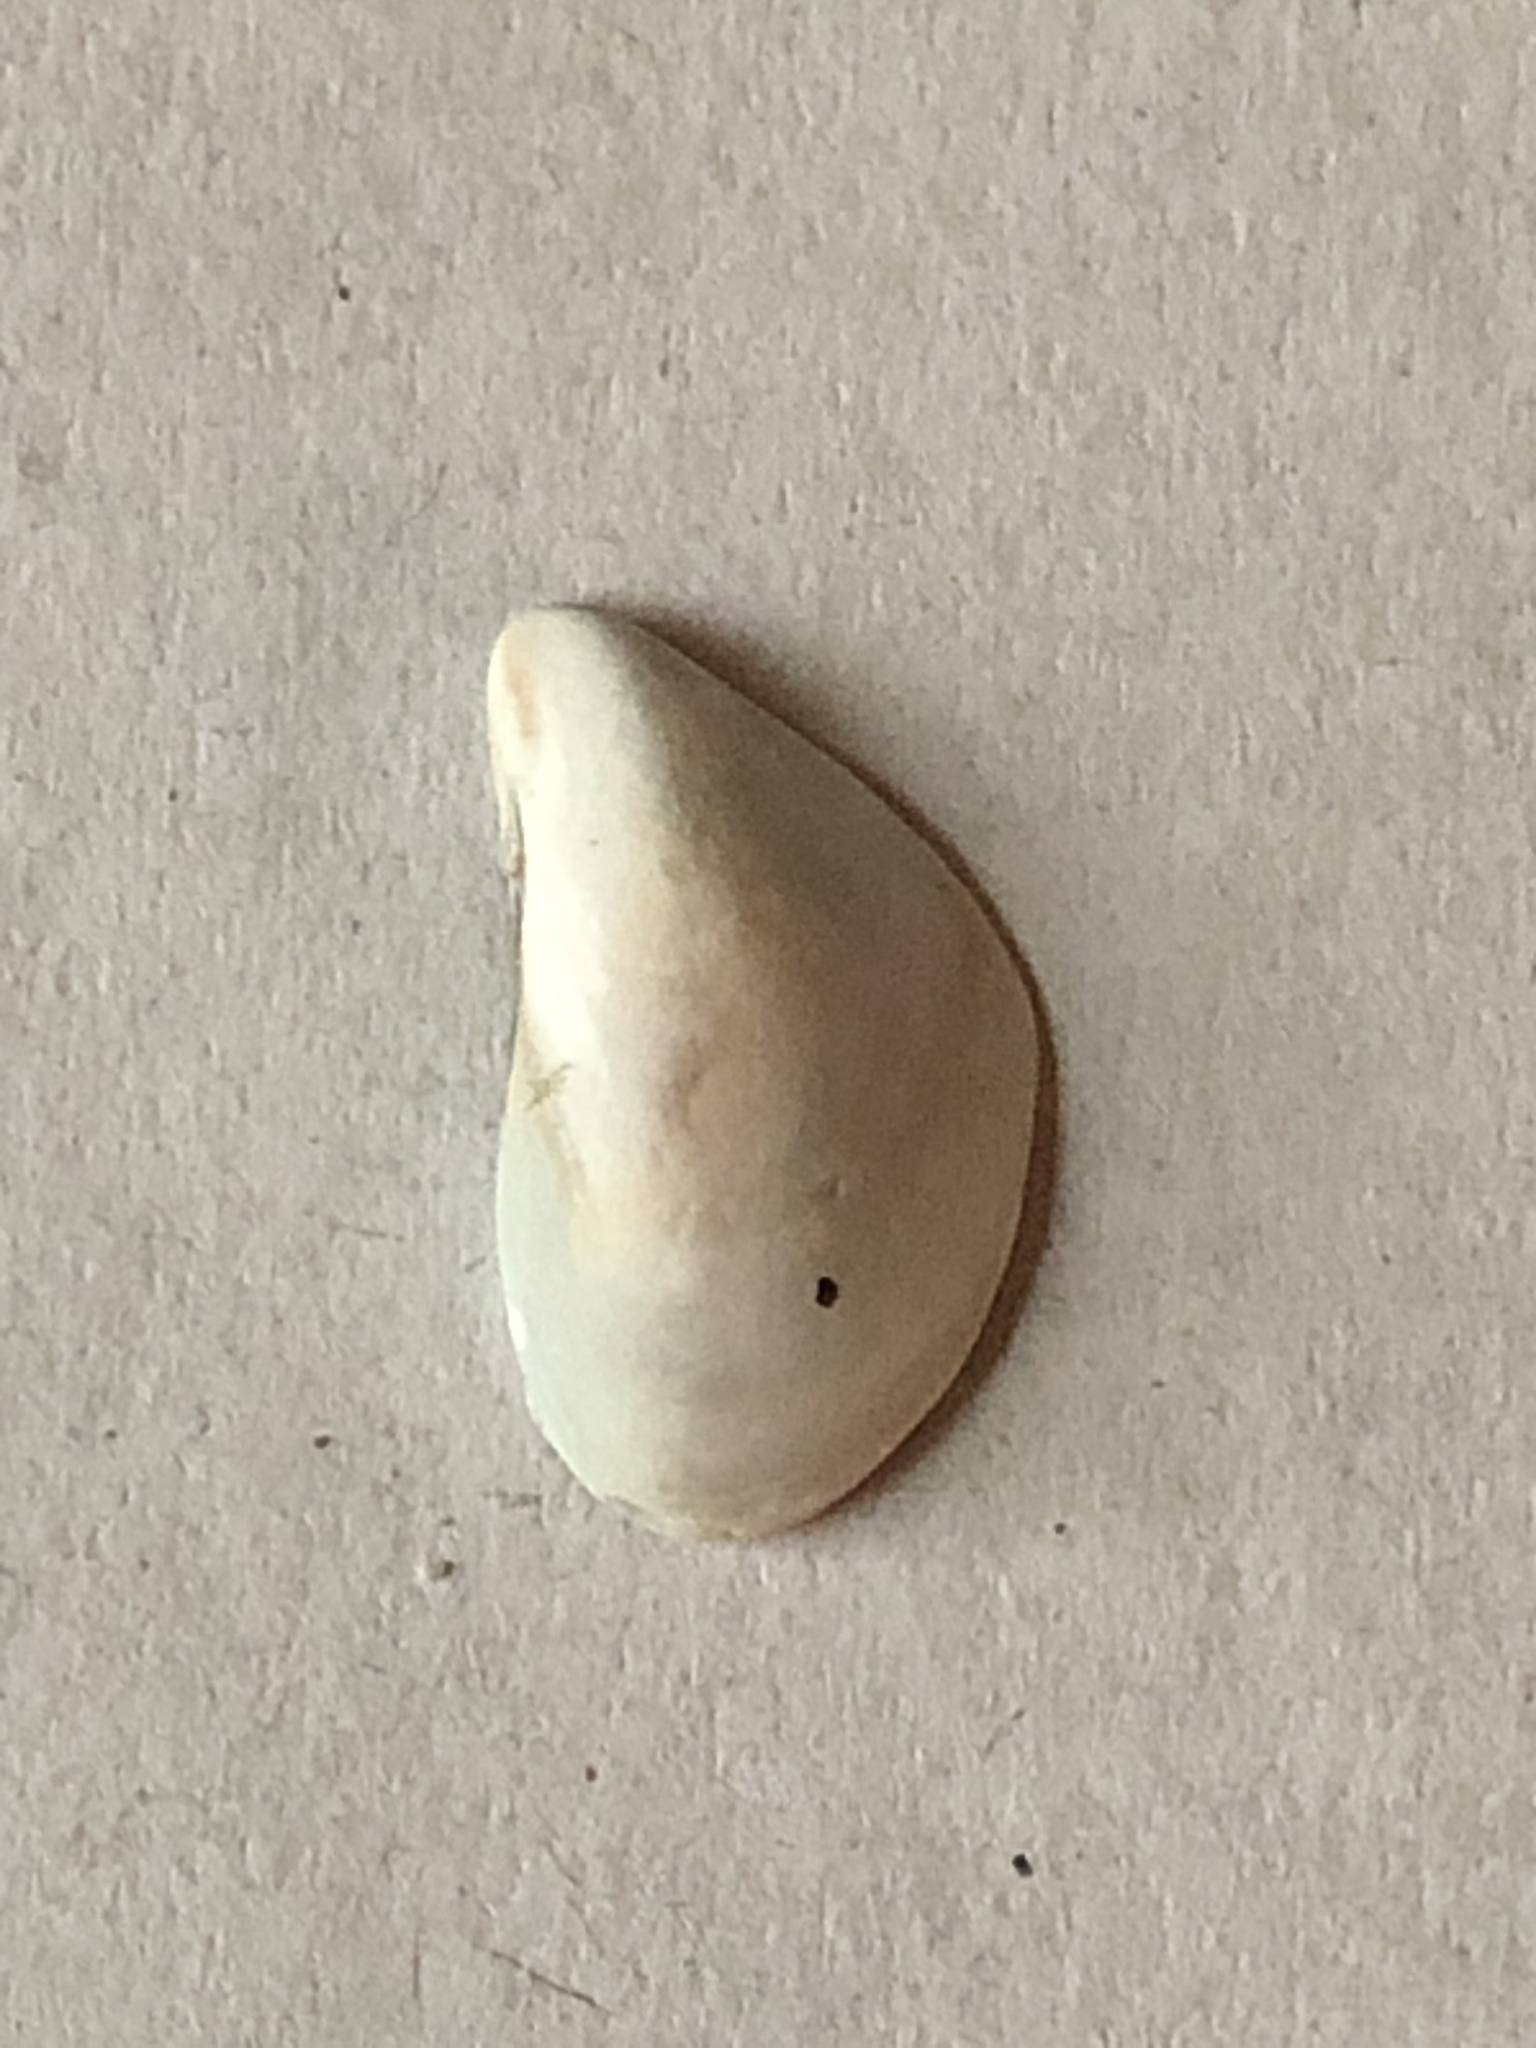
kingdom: Animalia
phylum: Mollusca
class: Bivalvia
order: Myida
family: Dreissenidae
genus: Dreissena
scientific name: Dreissena bugensis
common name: Quagga mussel
